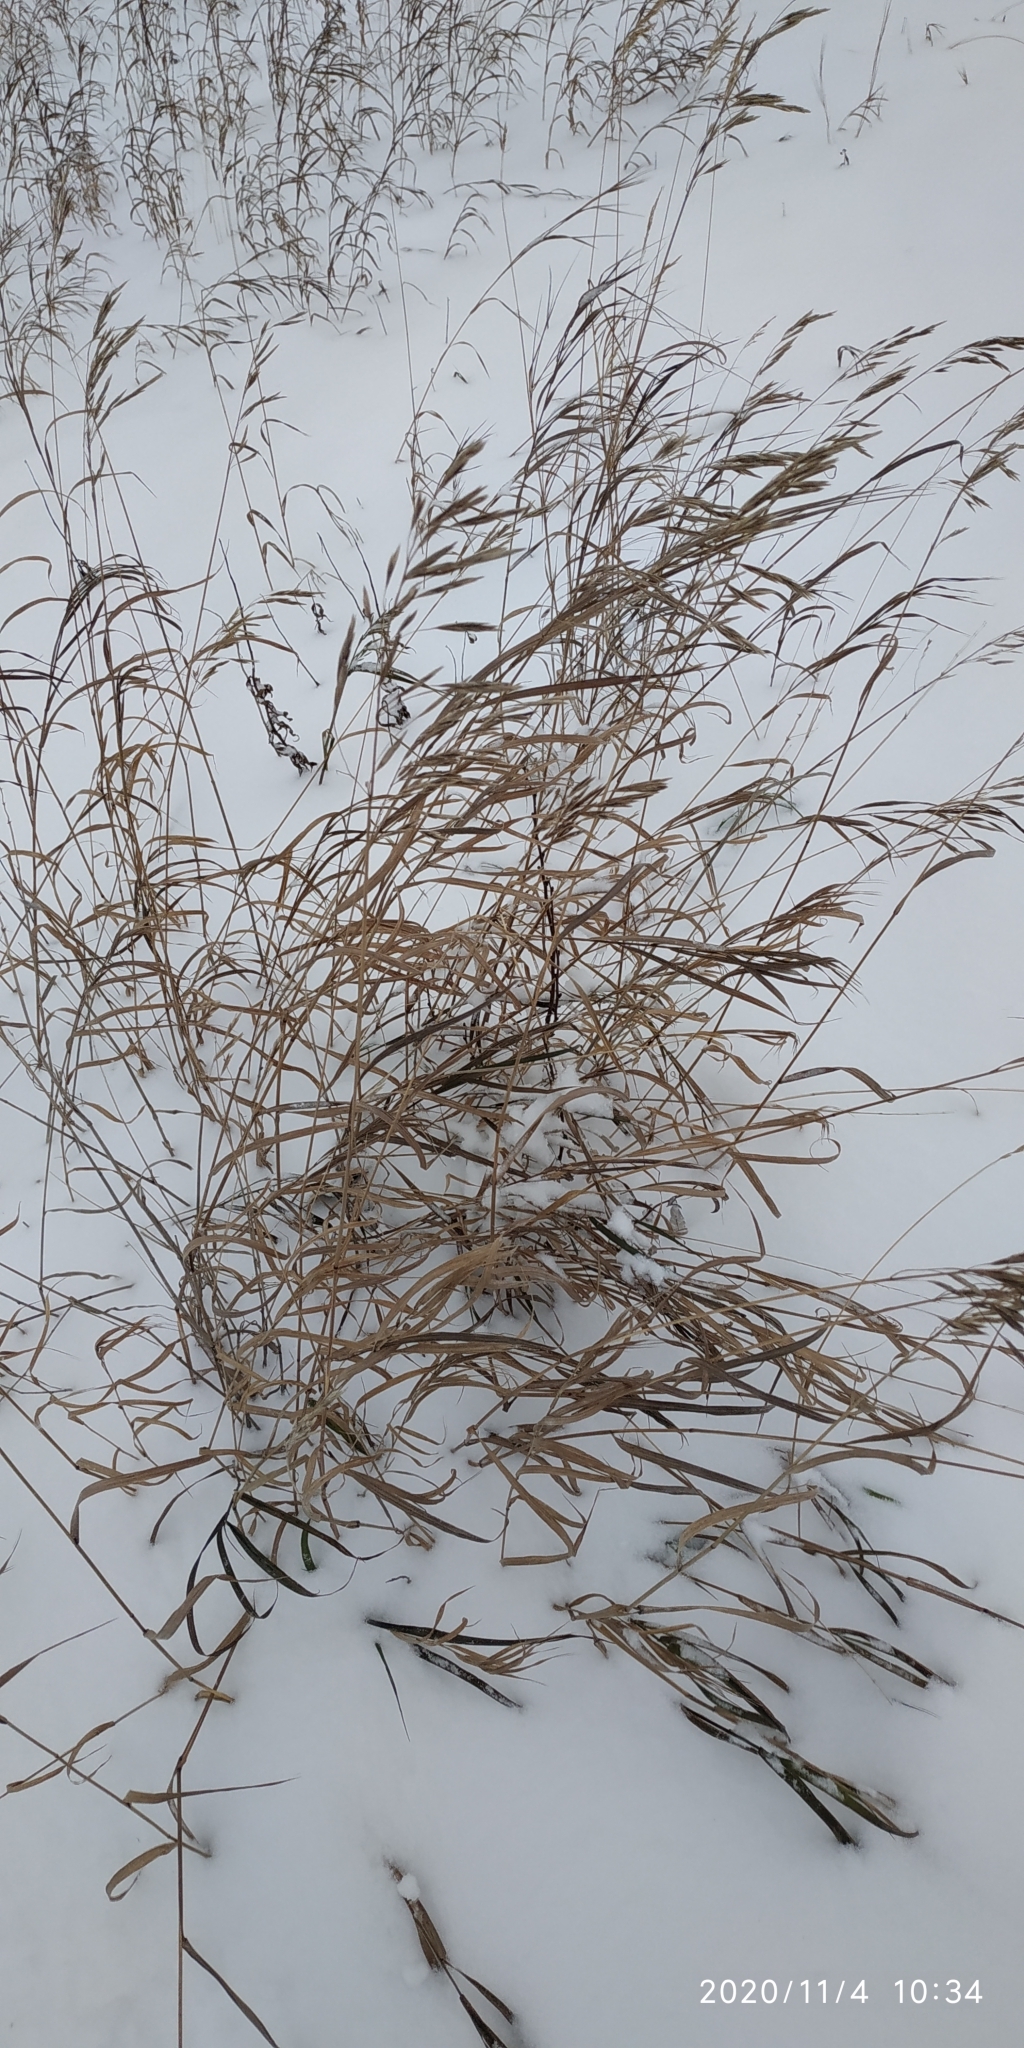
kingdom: Plantae
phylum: Tracheophyta
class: Liliopsida
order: Poales
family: Poaceae
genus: Bromus
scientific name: Bromus inermis
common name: Smooth brome
